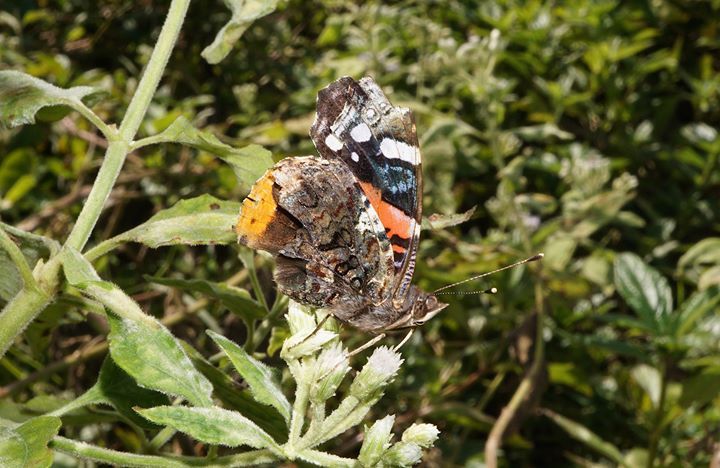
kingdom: Animalia
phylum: Arthropoda
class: Insecta
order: Lepidoptera
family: Nymphalidae
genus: Vanessa
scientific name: Vanessa atalanta
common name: Red admiral
